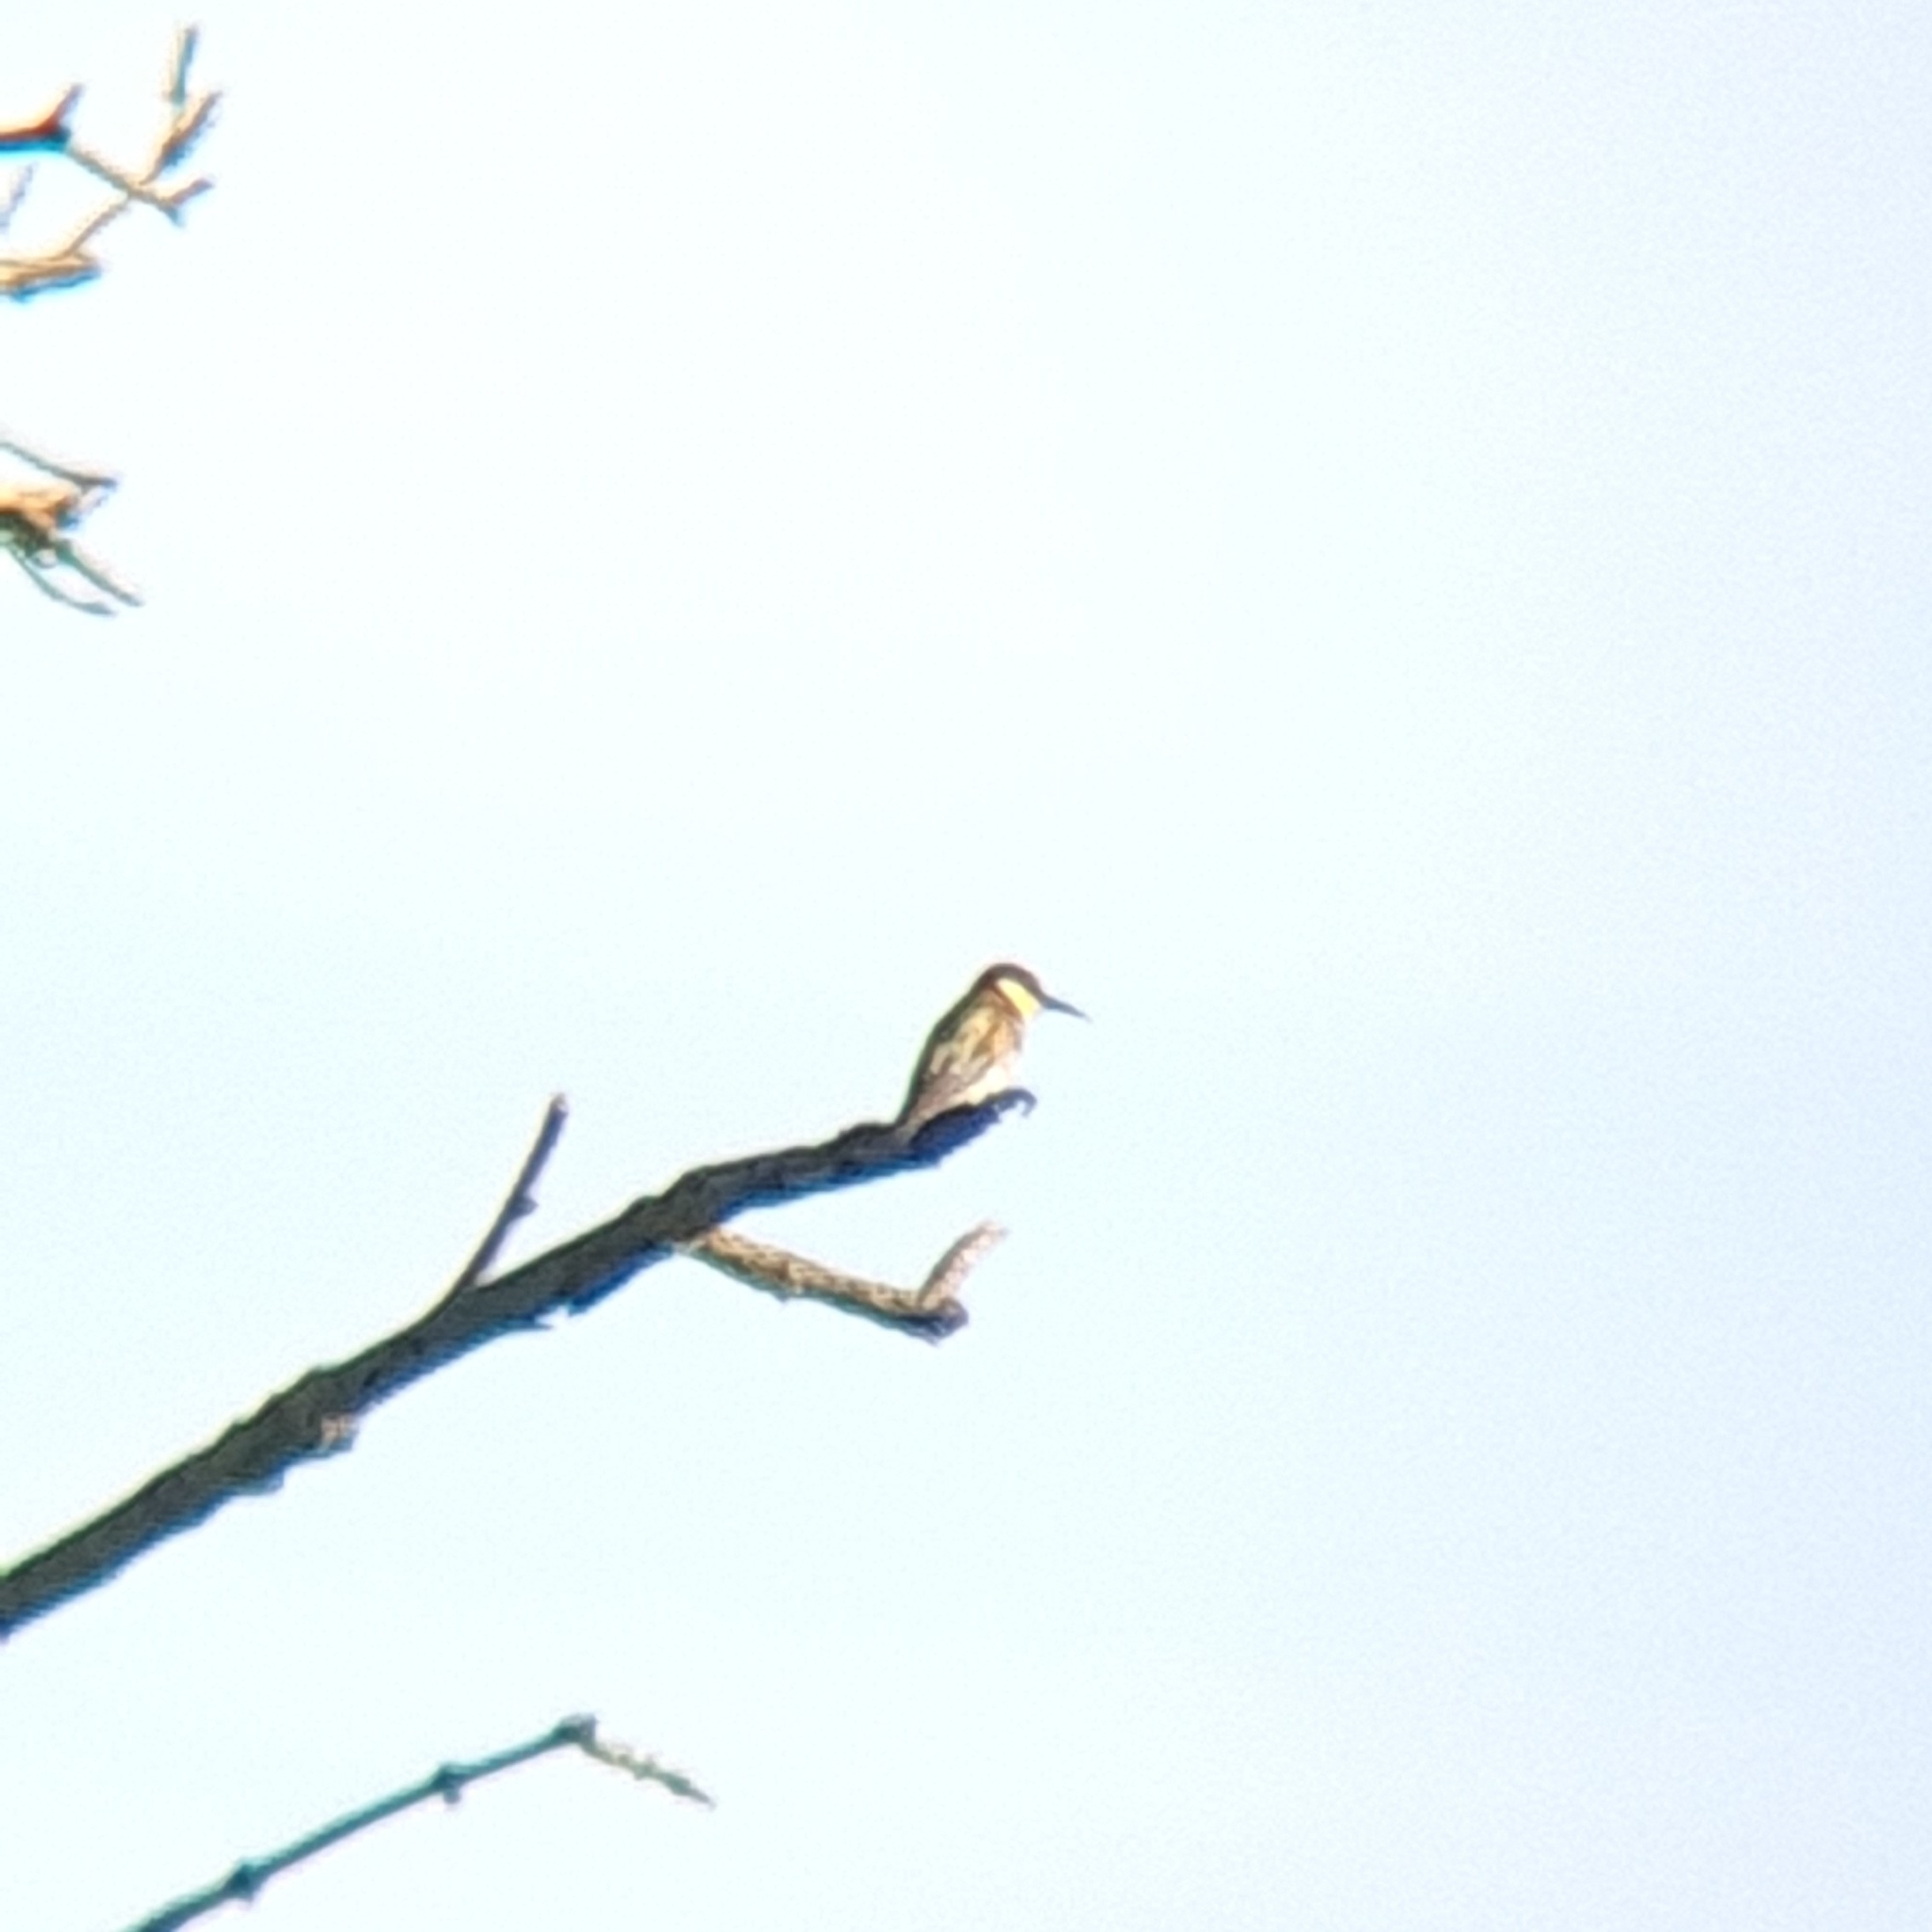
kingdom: Animalia
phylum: Chordata
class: Aves
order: Coraciiformes
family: Meropidae
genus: Merops
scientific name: Merops apiaster
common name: European bee-eater
